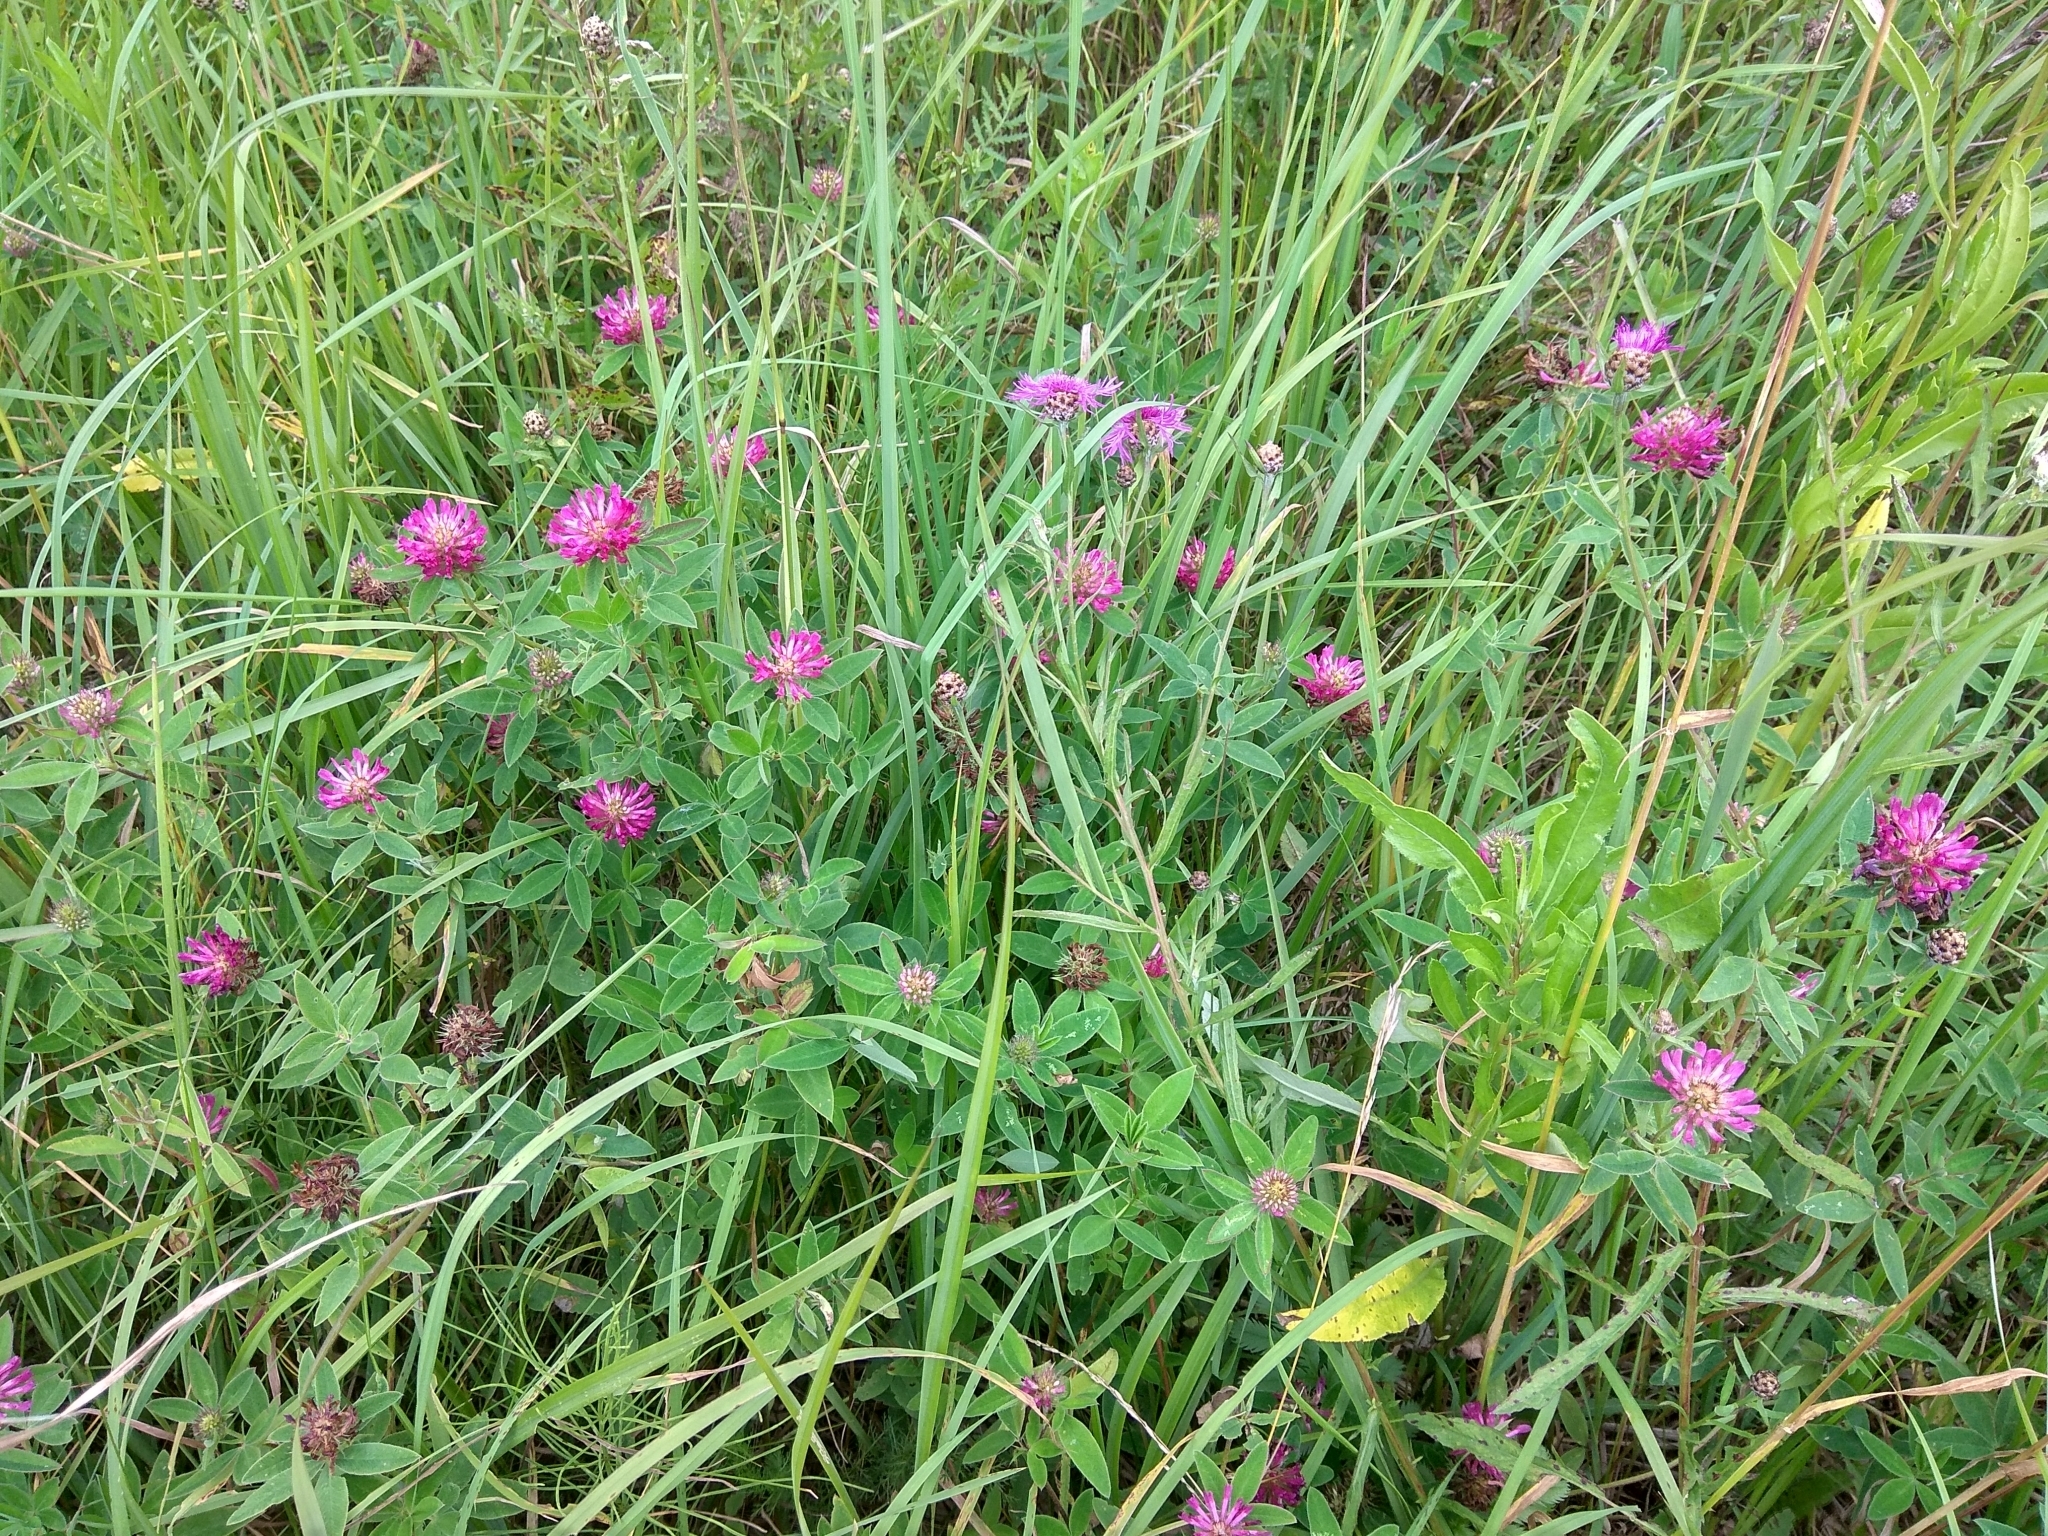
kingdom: Plantae
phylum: Tracheophyta
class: Magnoliopsida
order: Fabales
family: Fabaceae
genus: Trifolium
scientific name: Trifolium medium
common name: Zigzag clover
